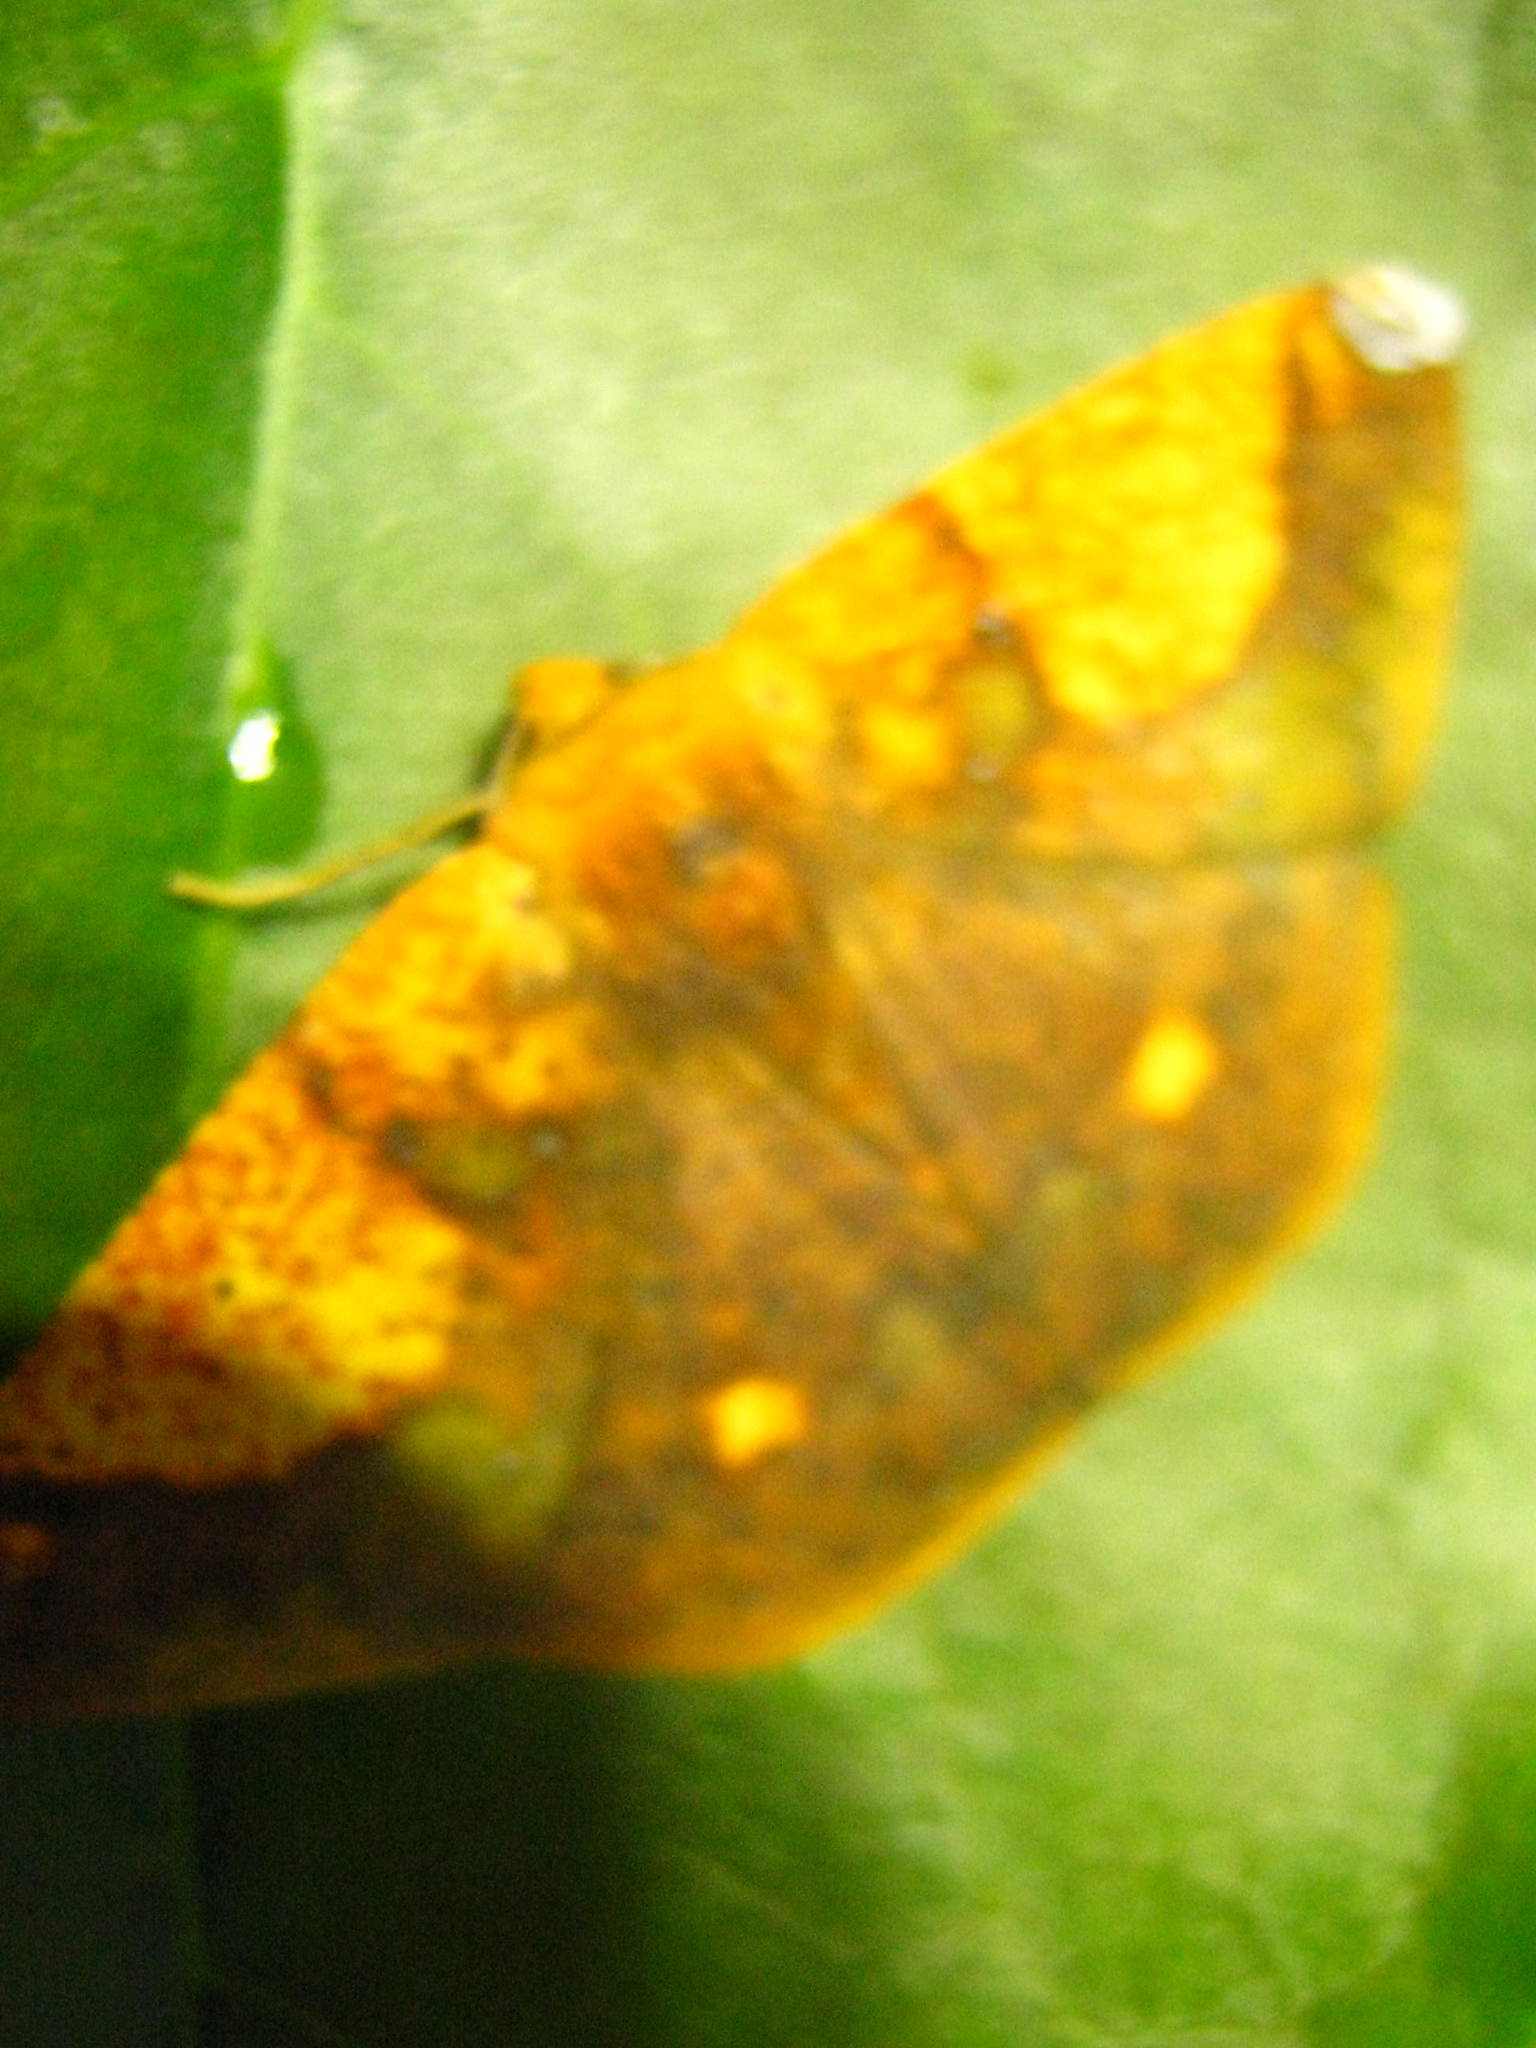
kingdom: Animalia
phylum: Arthropoda
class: Insecta
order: Lepidoptera
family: Geometridae
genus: Acrosemia
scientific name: Acrosemia vulpecularia
